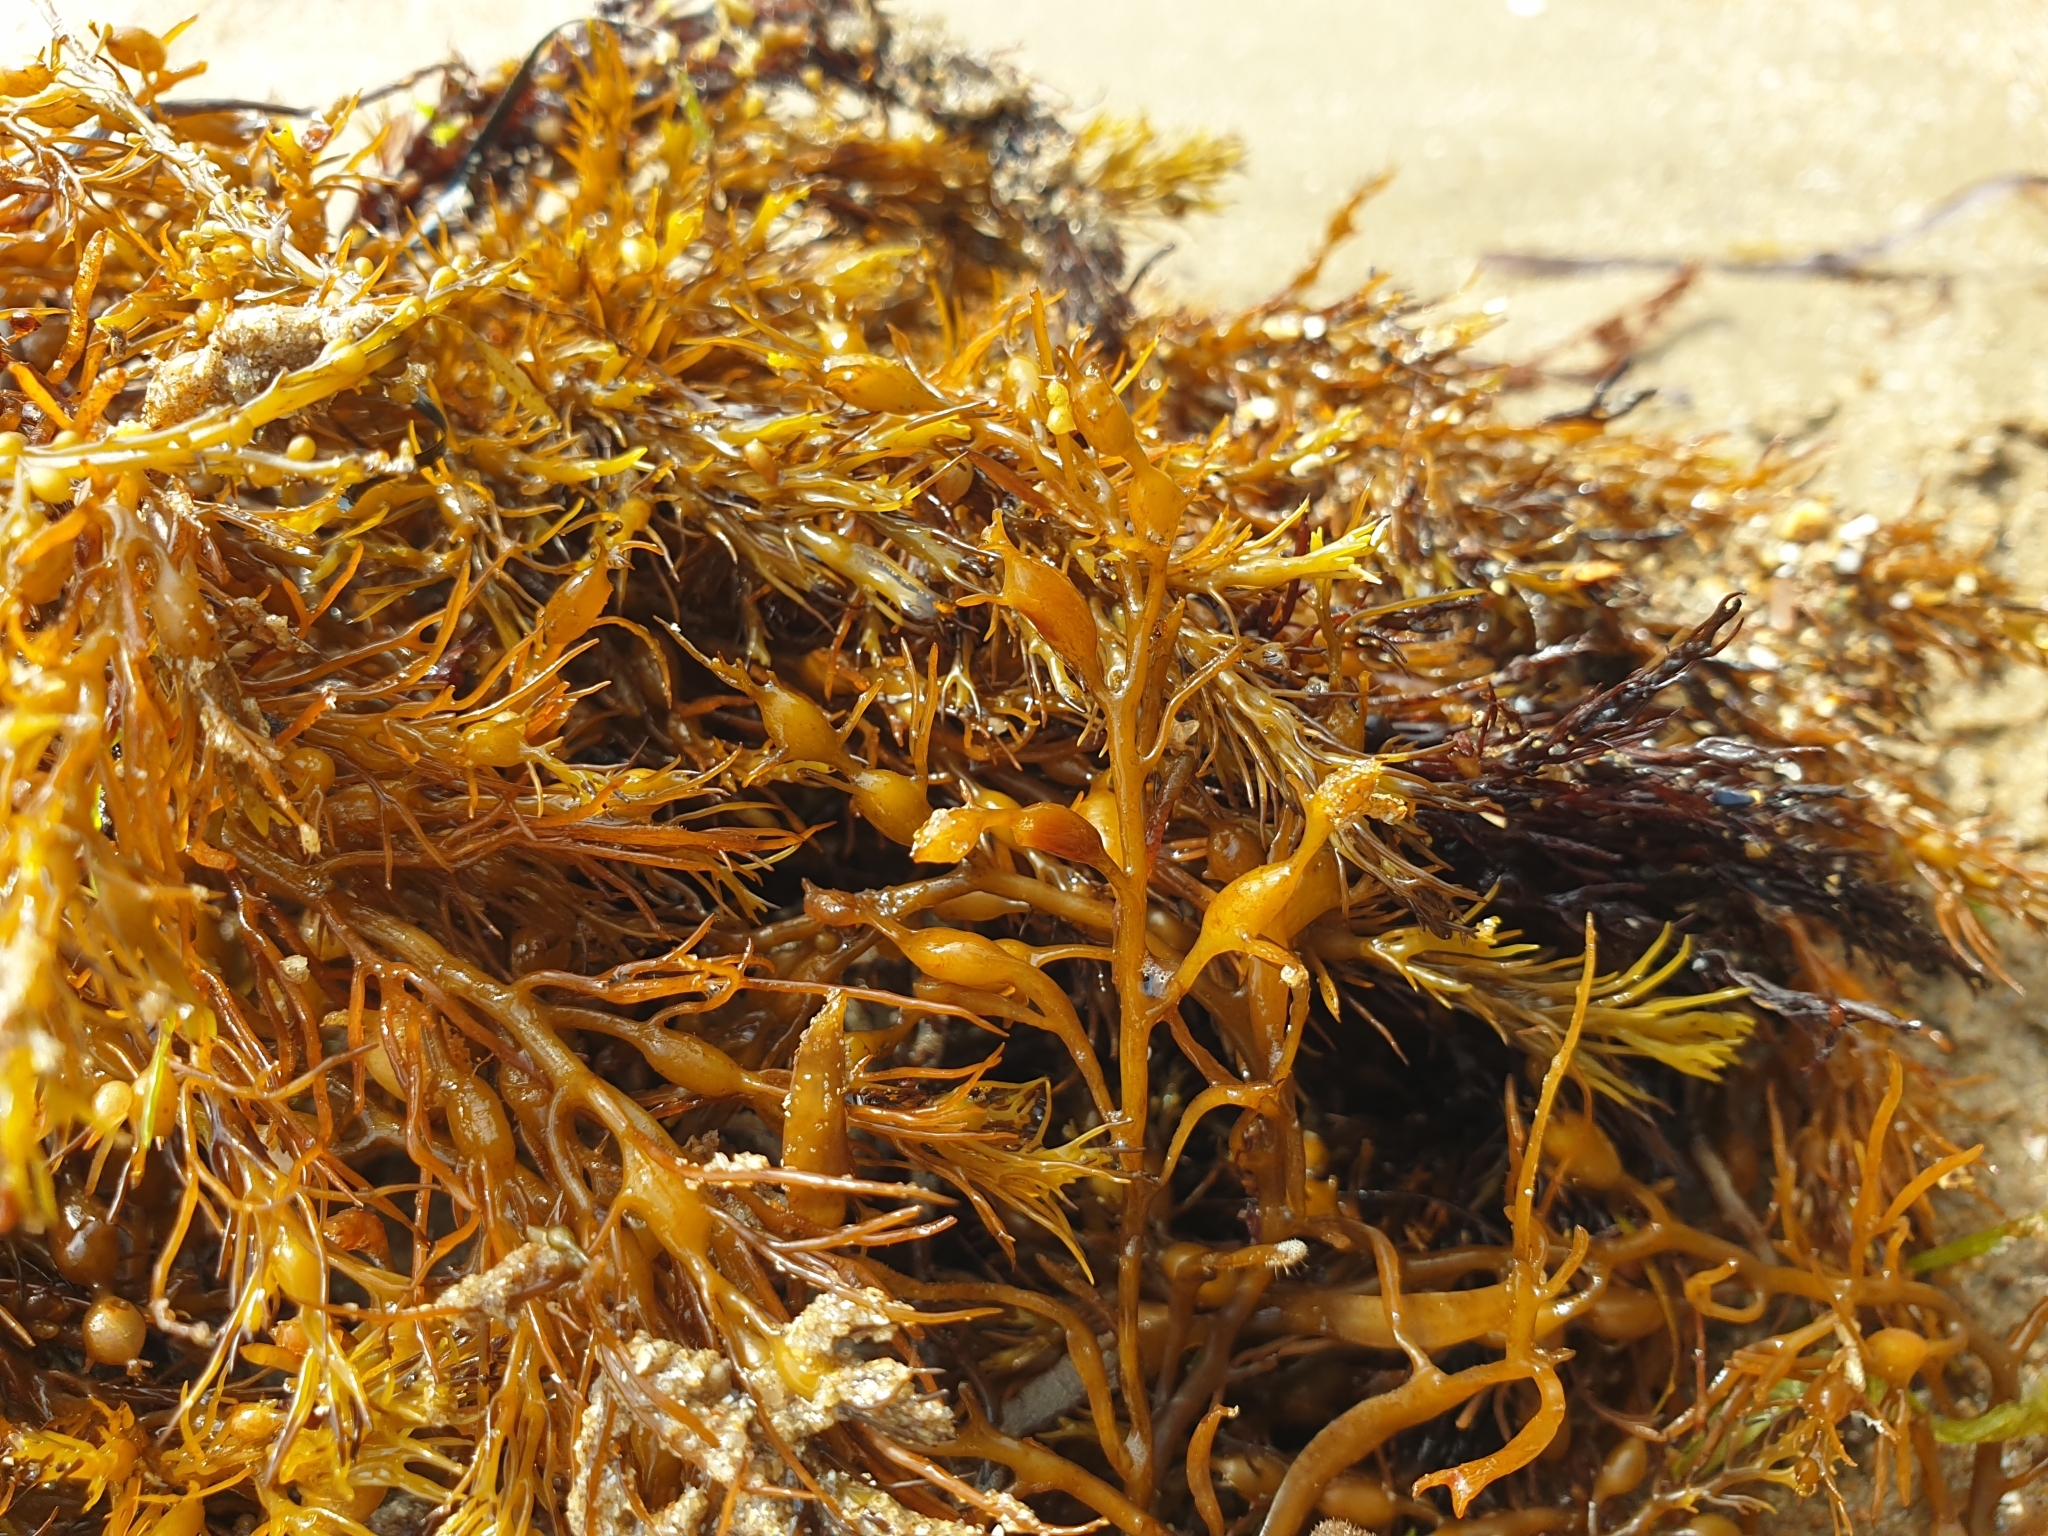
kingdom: Chromista
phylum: Ochrophyta
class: Phaeophyceae
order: Fucales
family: Sargassaceae
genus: Cystoseira
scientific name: Cystoseira Gongolaria baccata
